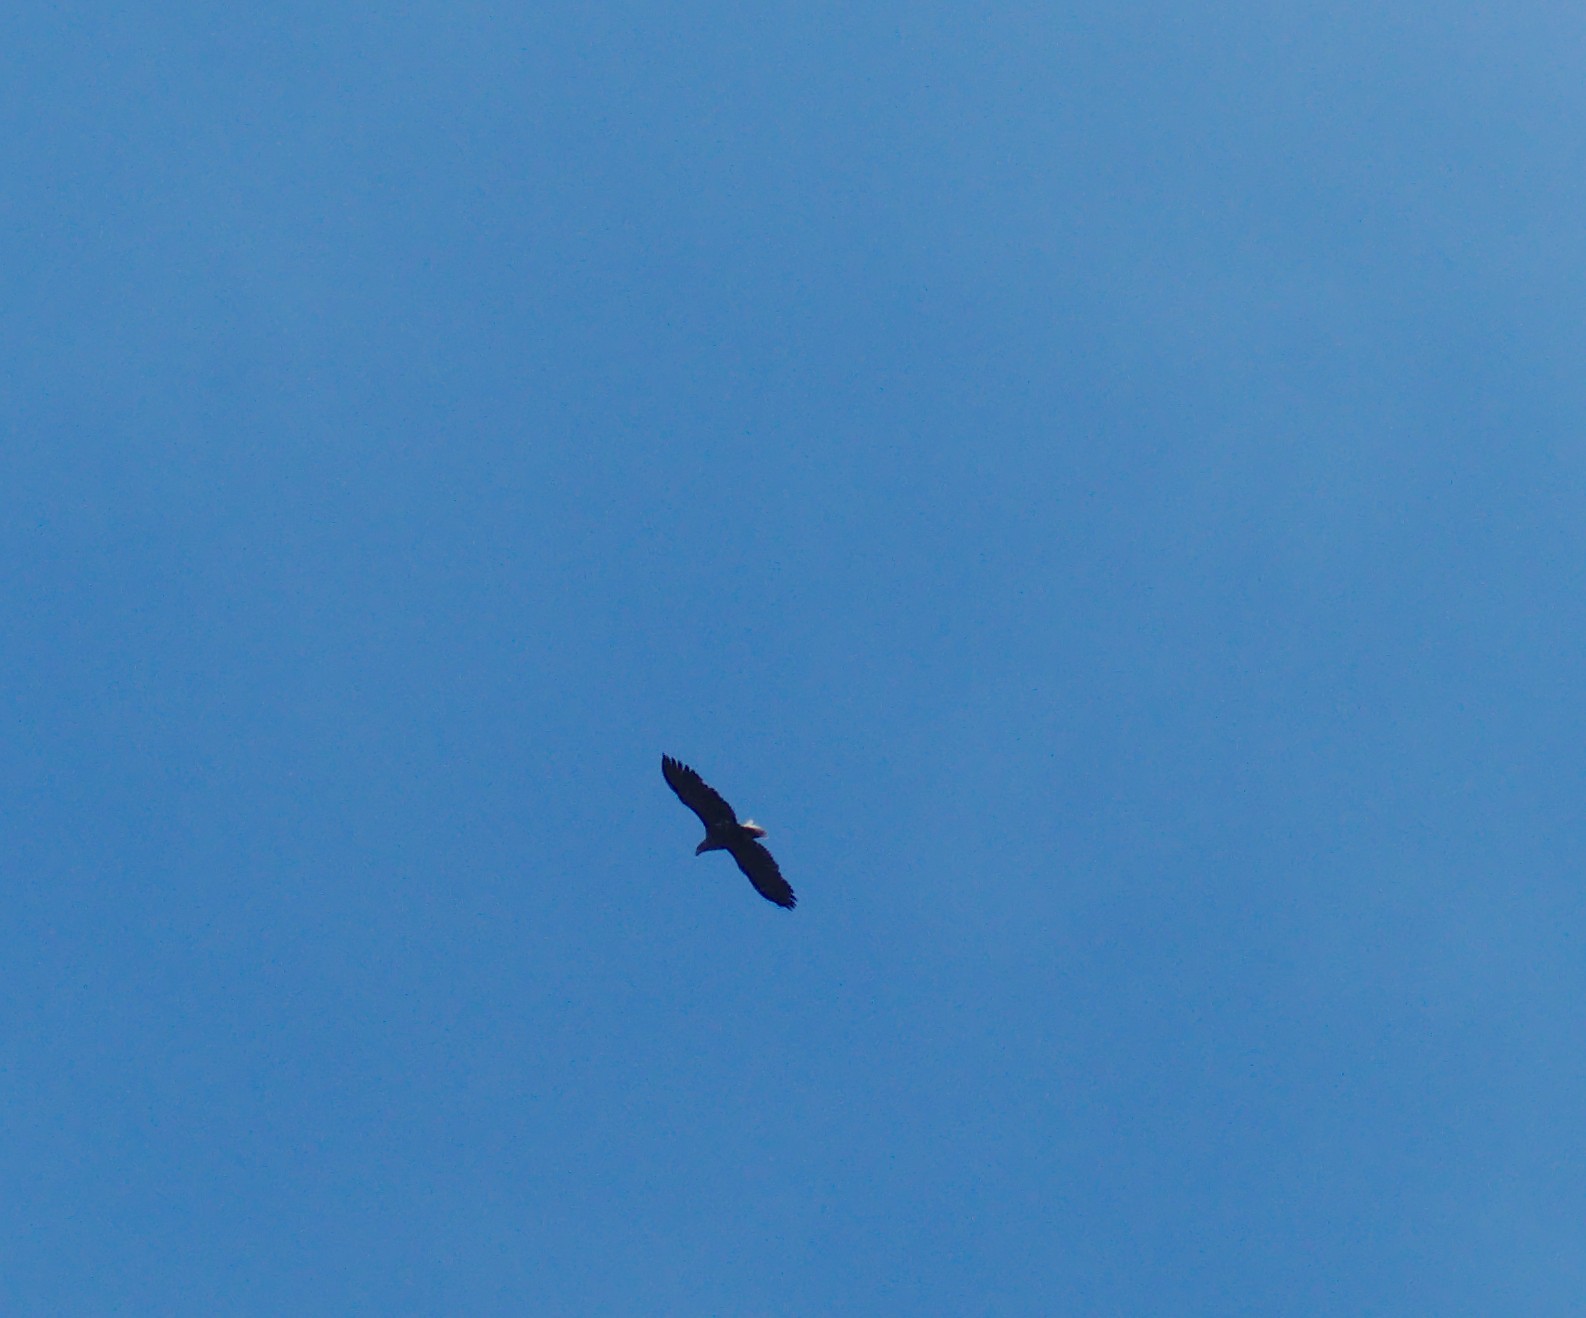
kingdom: Animalia
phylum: Chordata
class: Aves
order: Accipitriformes
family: Accipitridae
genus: Haliaeetus
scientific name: Haliaeetus albicilla
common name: White-tailed eagle
